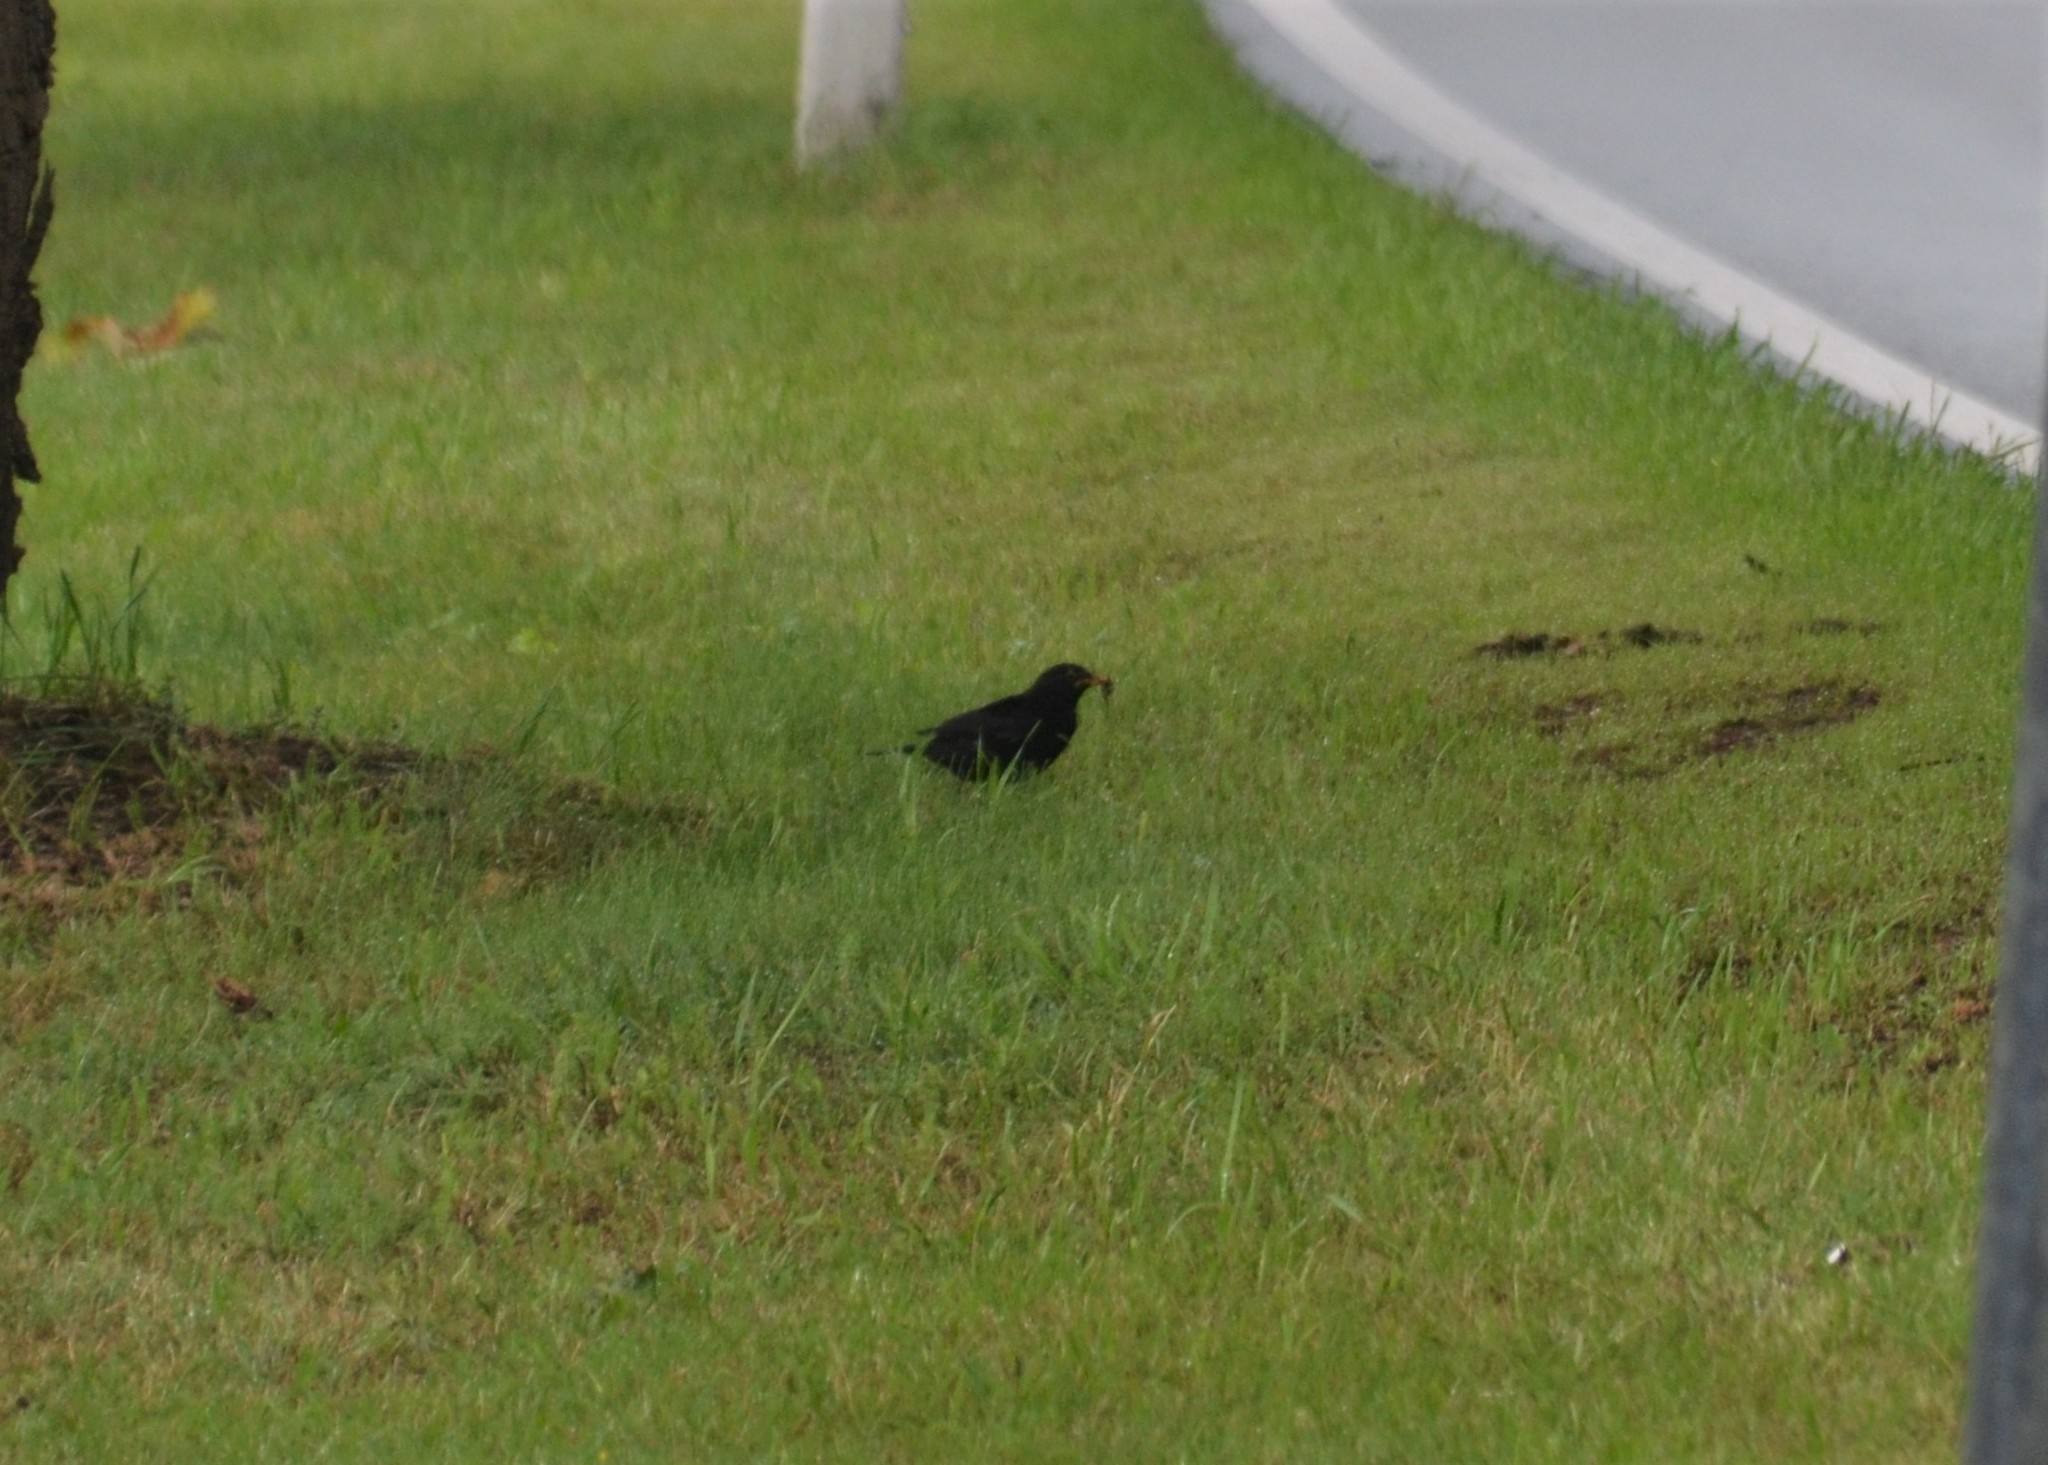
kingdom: Animalia
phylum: Chordata
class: Aves
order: Passeriformes
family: Turdidae
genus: Turdus
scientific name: Turdus merula
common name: Common blackbird
